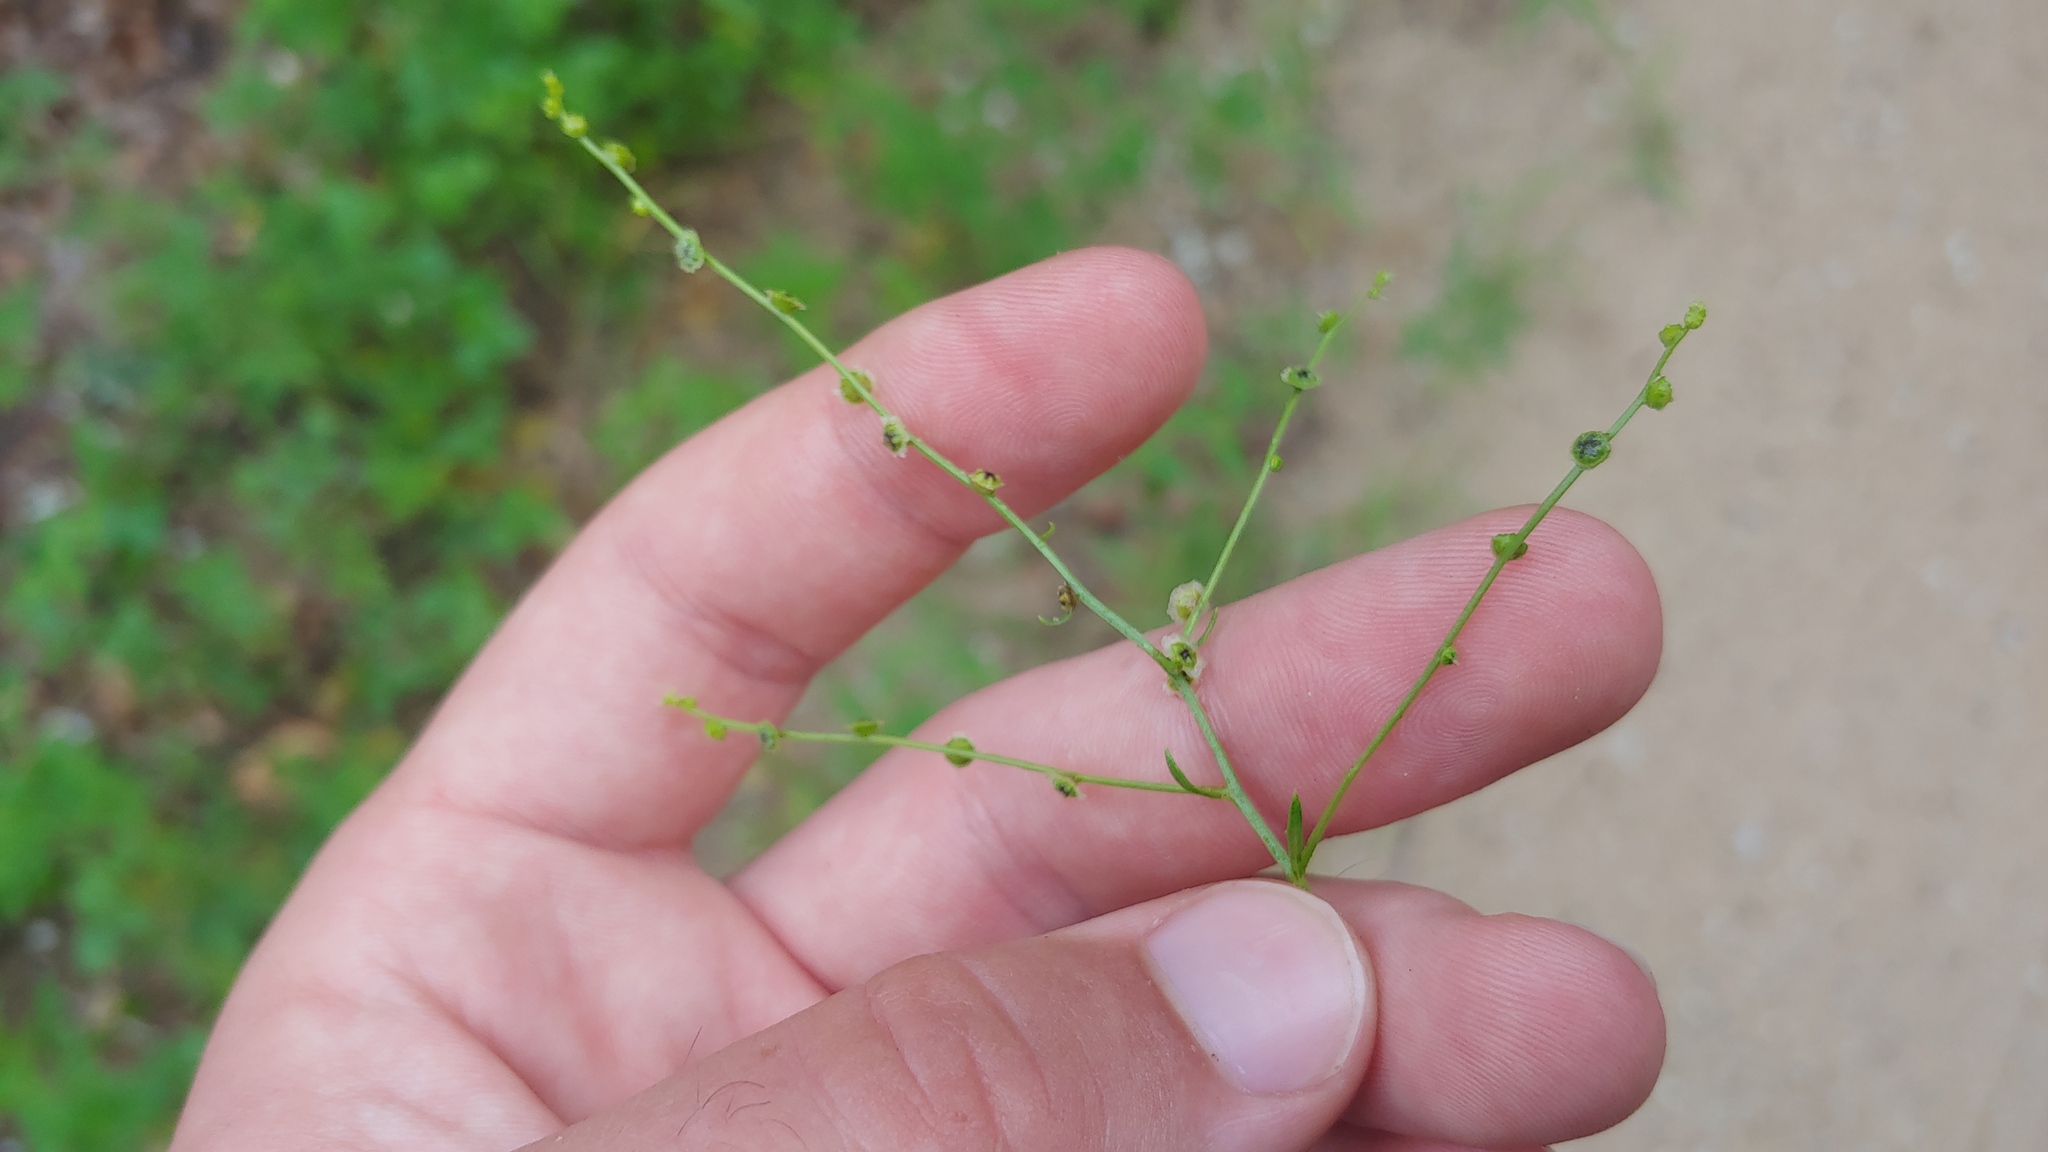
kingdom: Plantae
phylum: Tracheophyta
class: Magnoliopsida
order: Caryophyllales
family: Amaranthaceae
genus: Dysphania
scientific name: Dysphania atriplicifolia
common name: Plains tumbleweed
